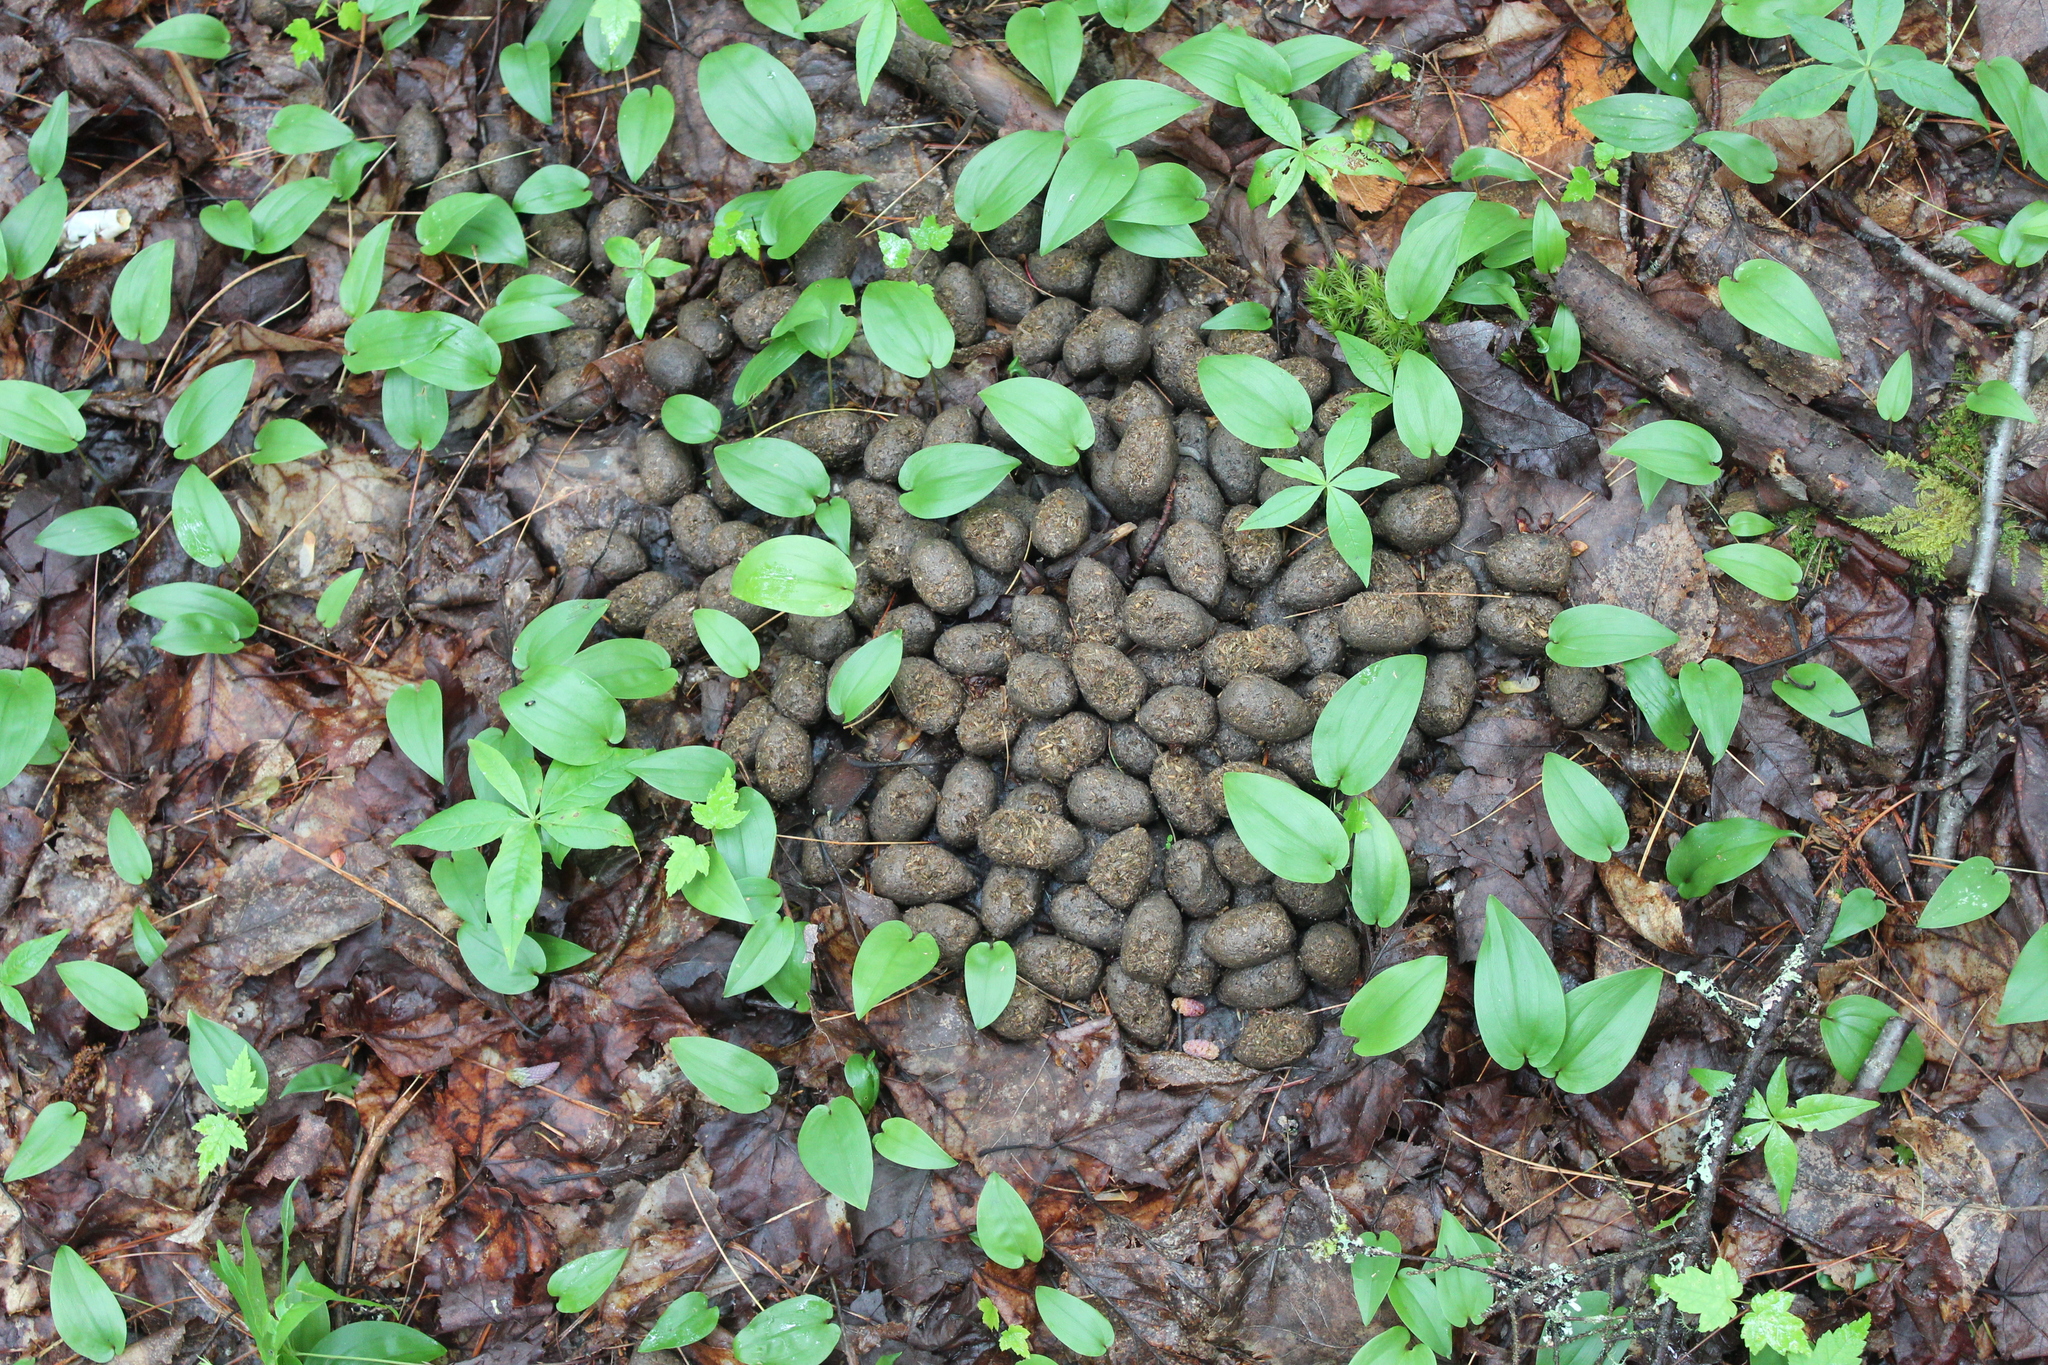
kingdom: Animalia
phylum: Chordata
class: Mammalia
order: Artiodactyla
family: Cervidae
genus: Alces
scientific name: Alces alces
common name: Moose
